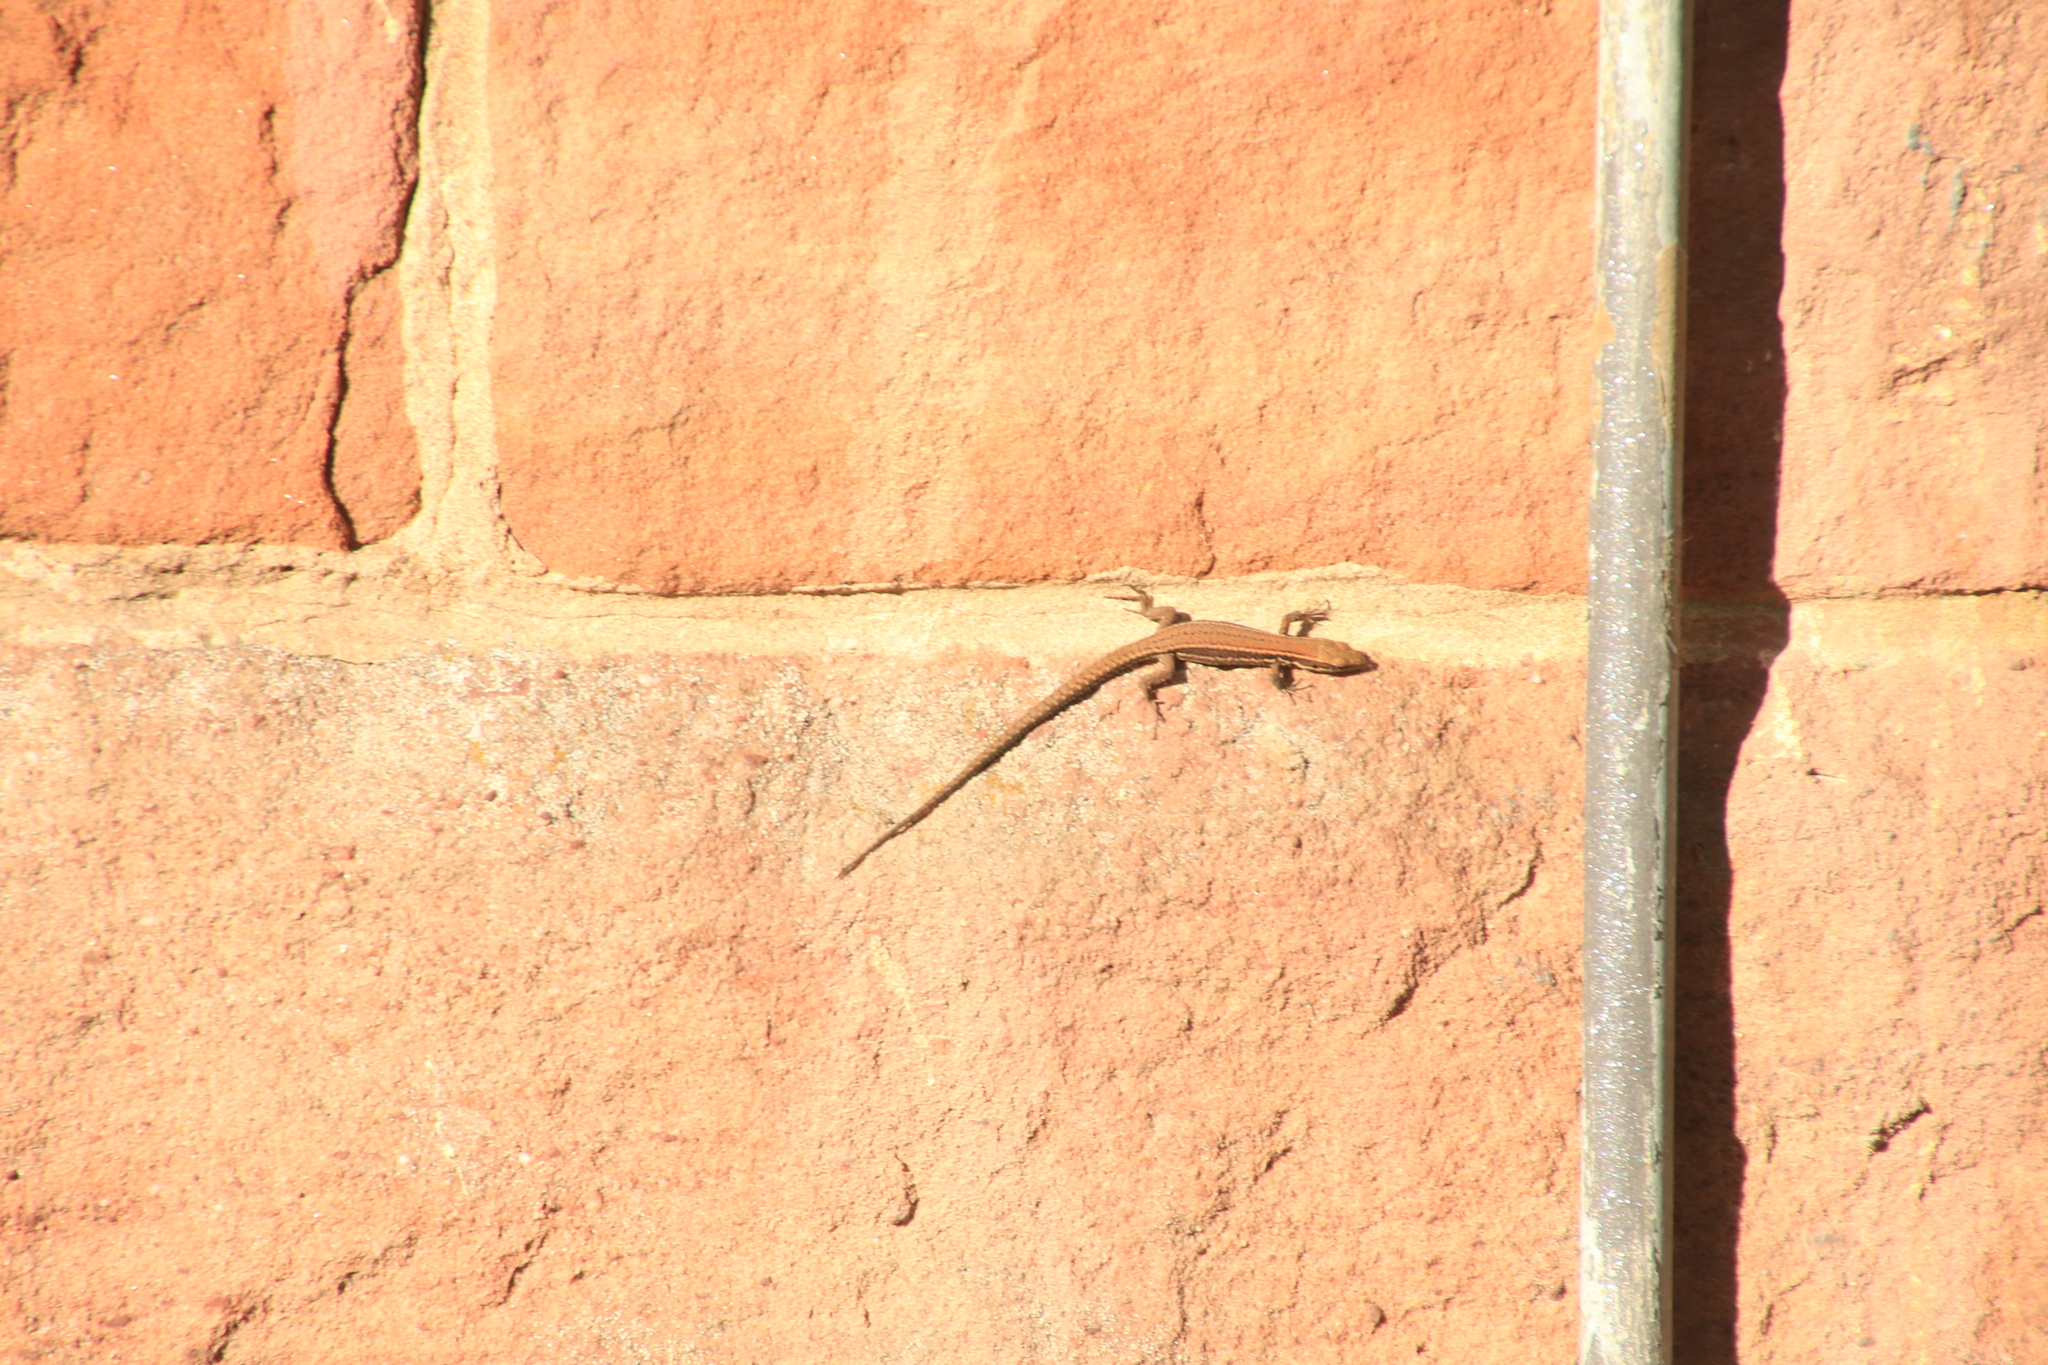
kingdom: Animalia
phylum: Chordata
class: Squamata
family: Lacertidae
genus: Podarcis
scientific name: Podarcis muralis
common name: Common wall lizard
